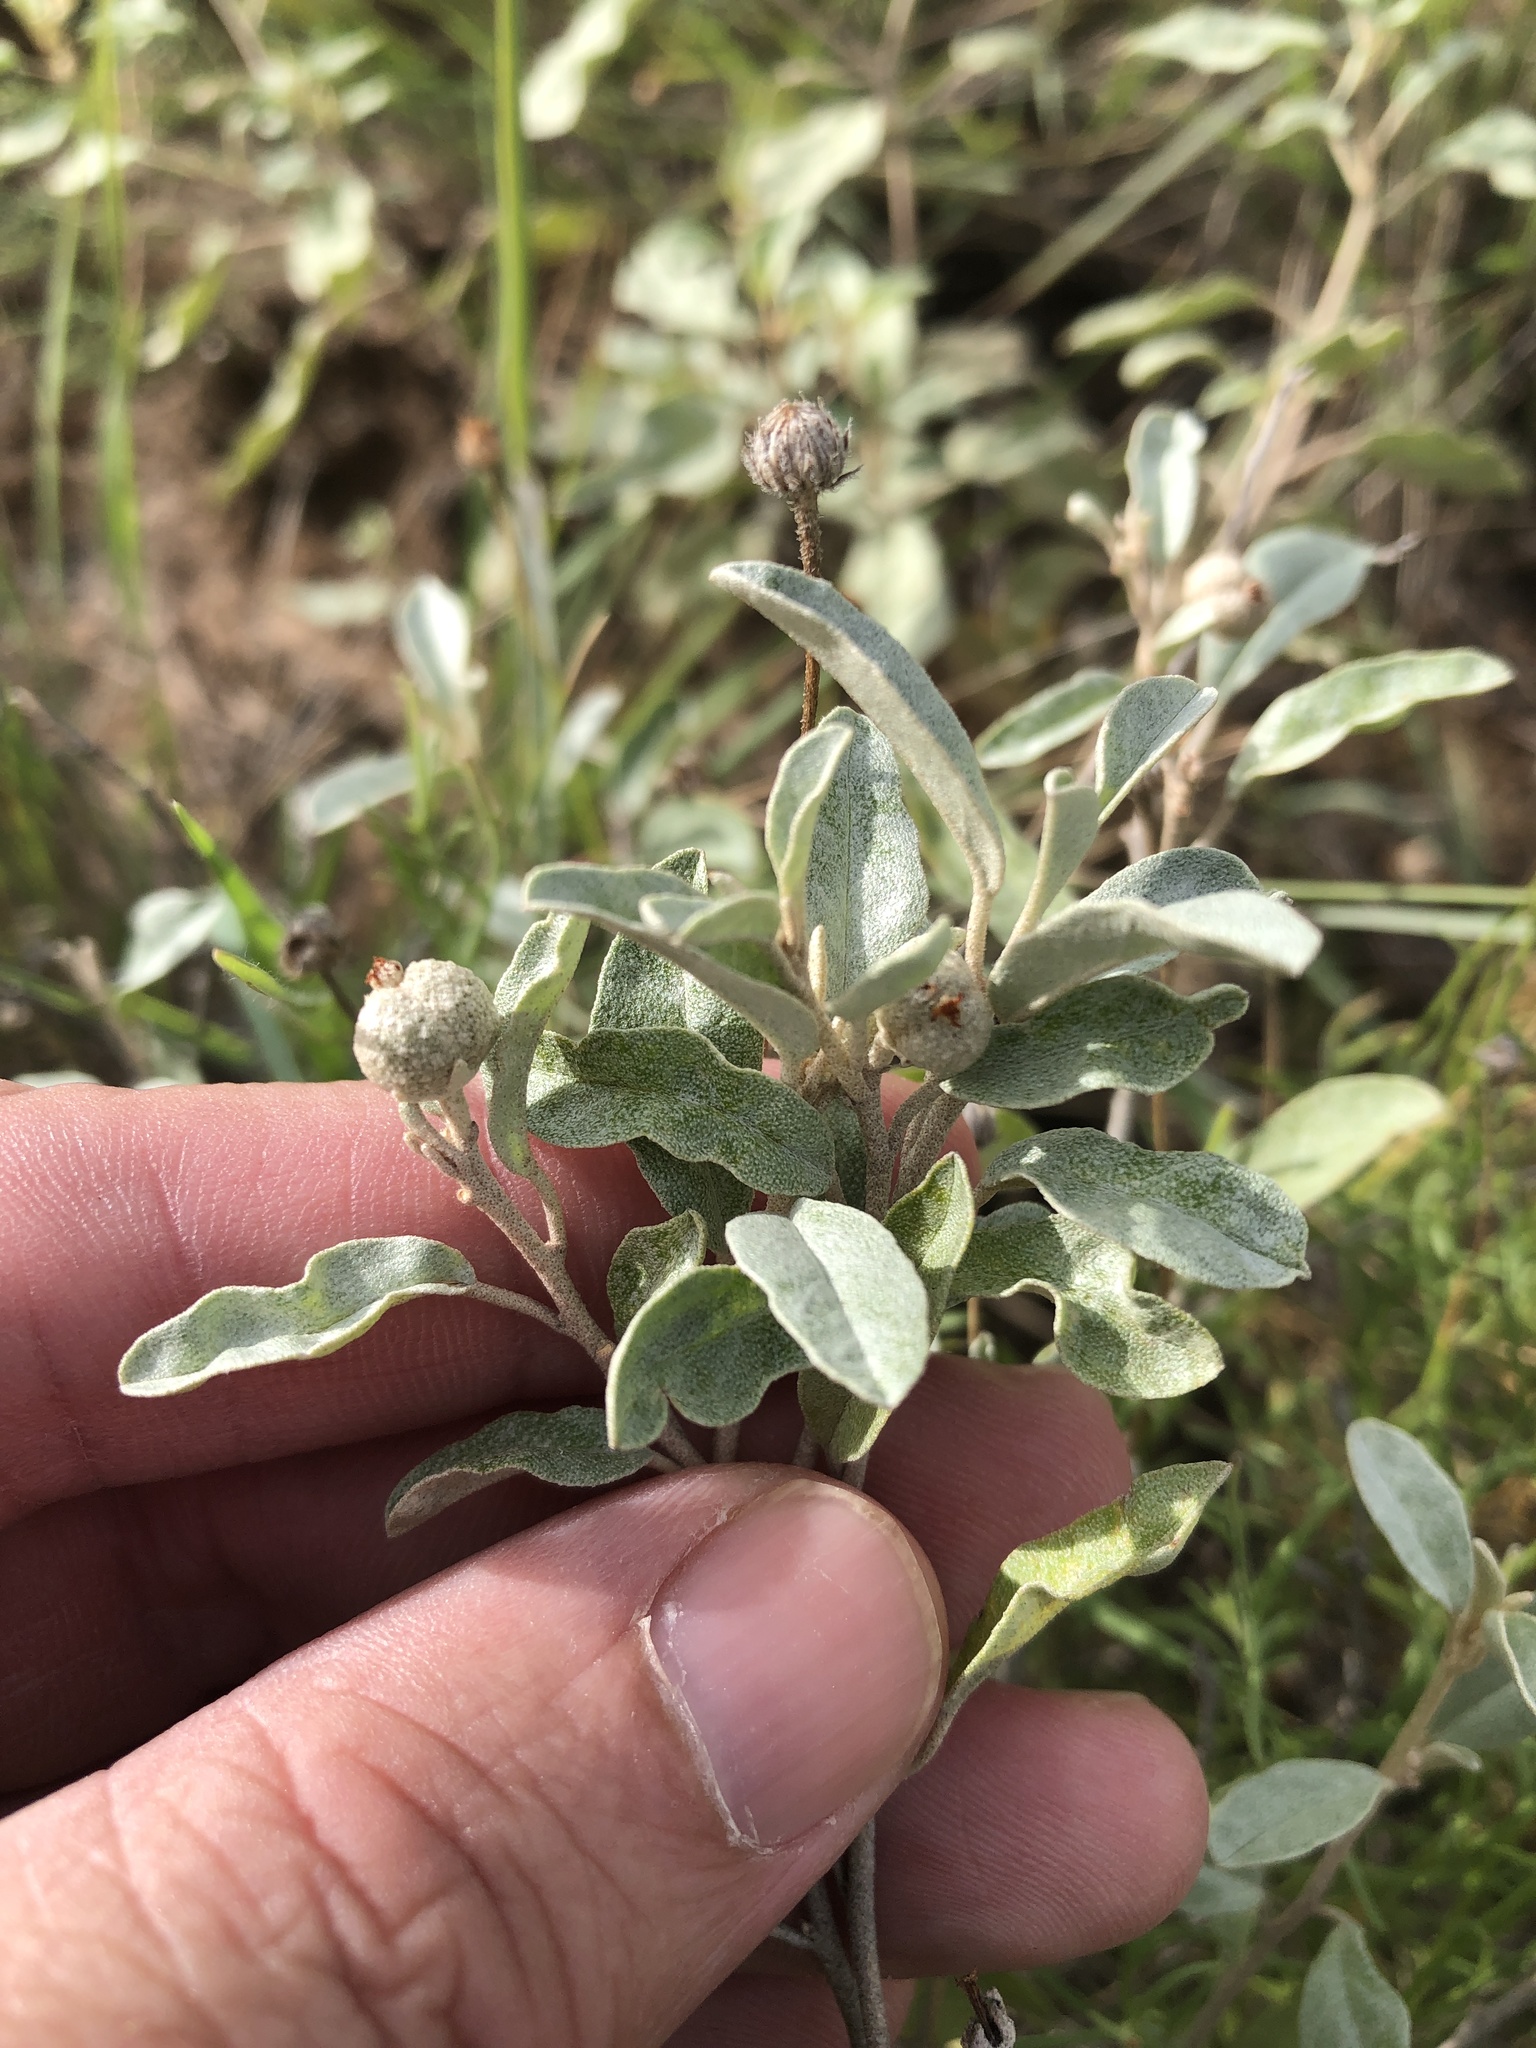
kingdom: Plantae
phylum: Tracheophyta
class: Magnoliopsida
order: Malpighiales
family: Euphorbiaceae
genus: Croton
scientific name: Croton dioicus
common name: Grassland croton
